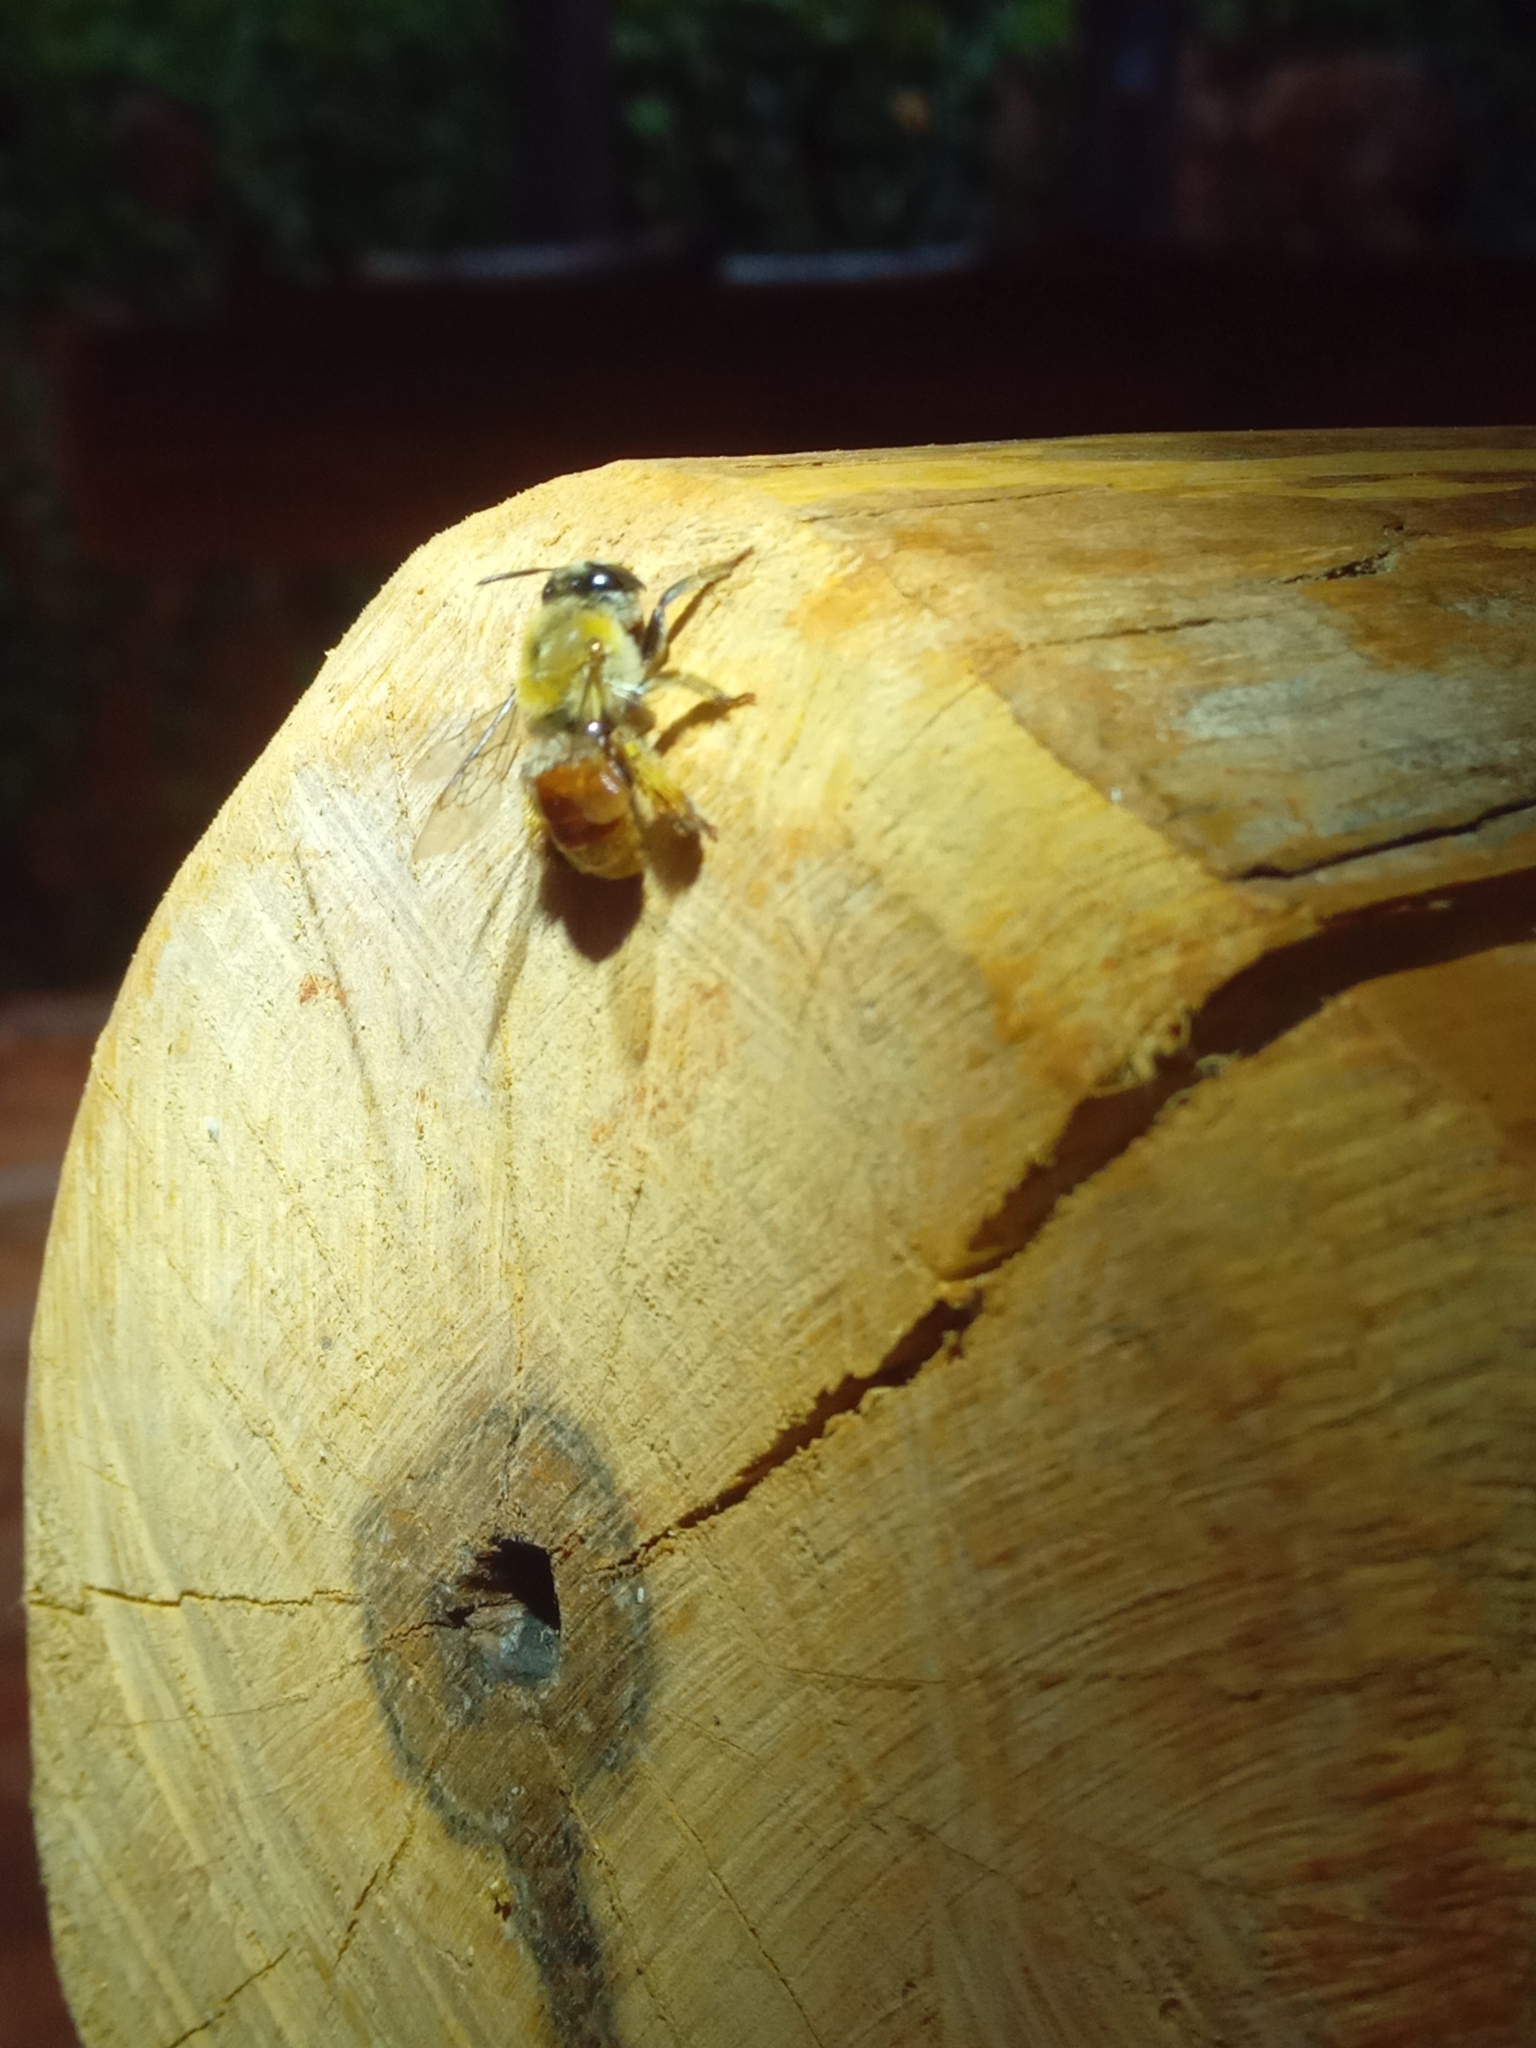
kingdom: Animalia
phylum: Arthropoda
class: Insecta
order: Hymenoptera
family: Apidae
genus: Centris
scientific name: Centris analis
